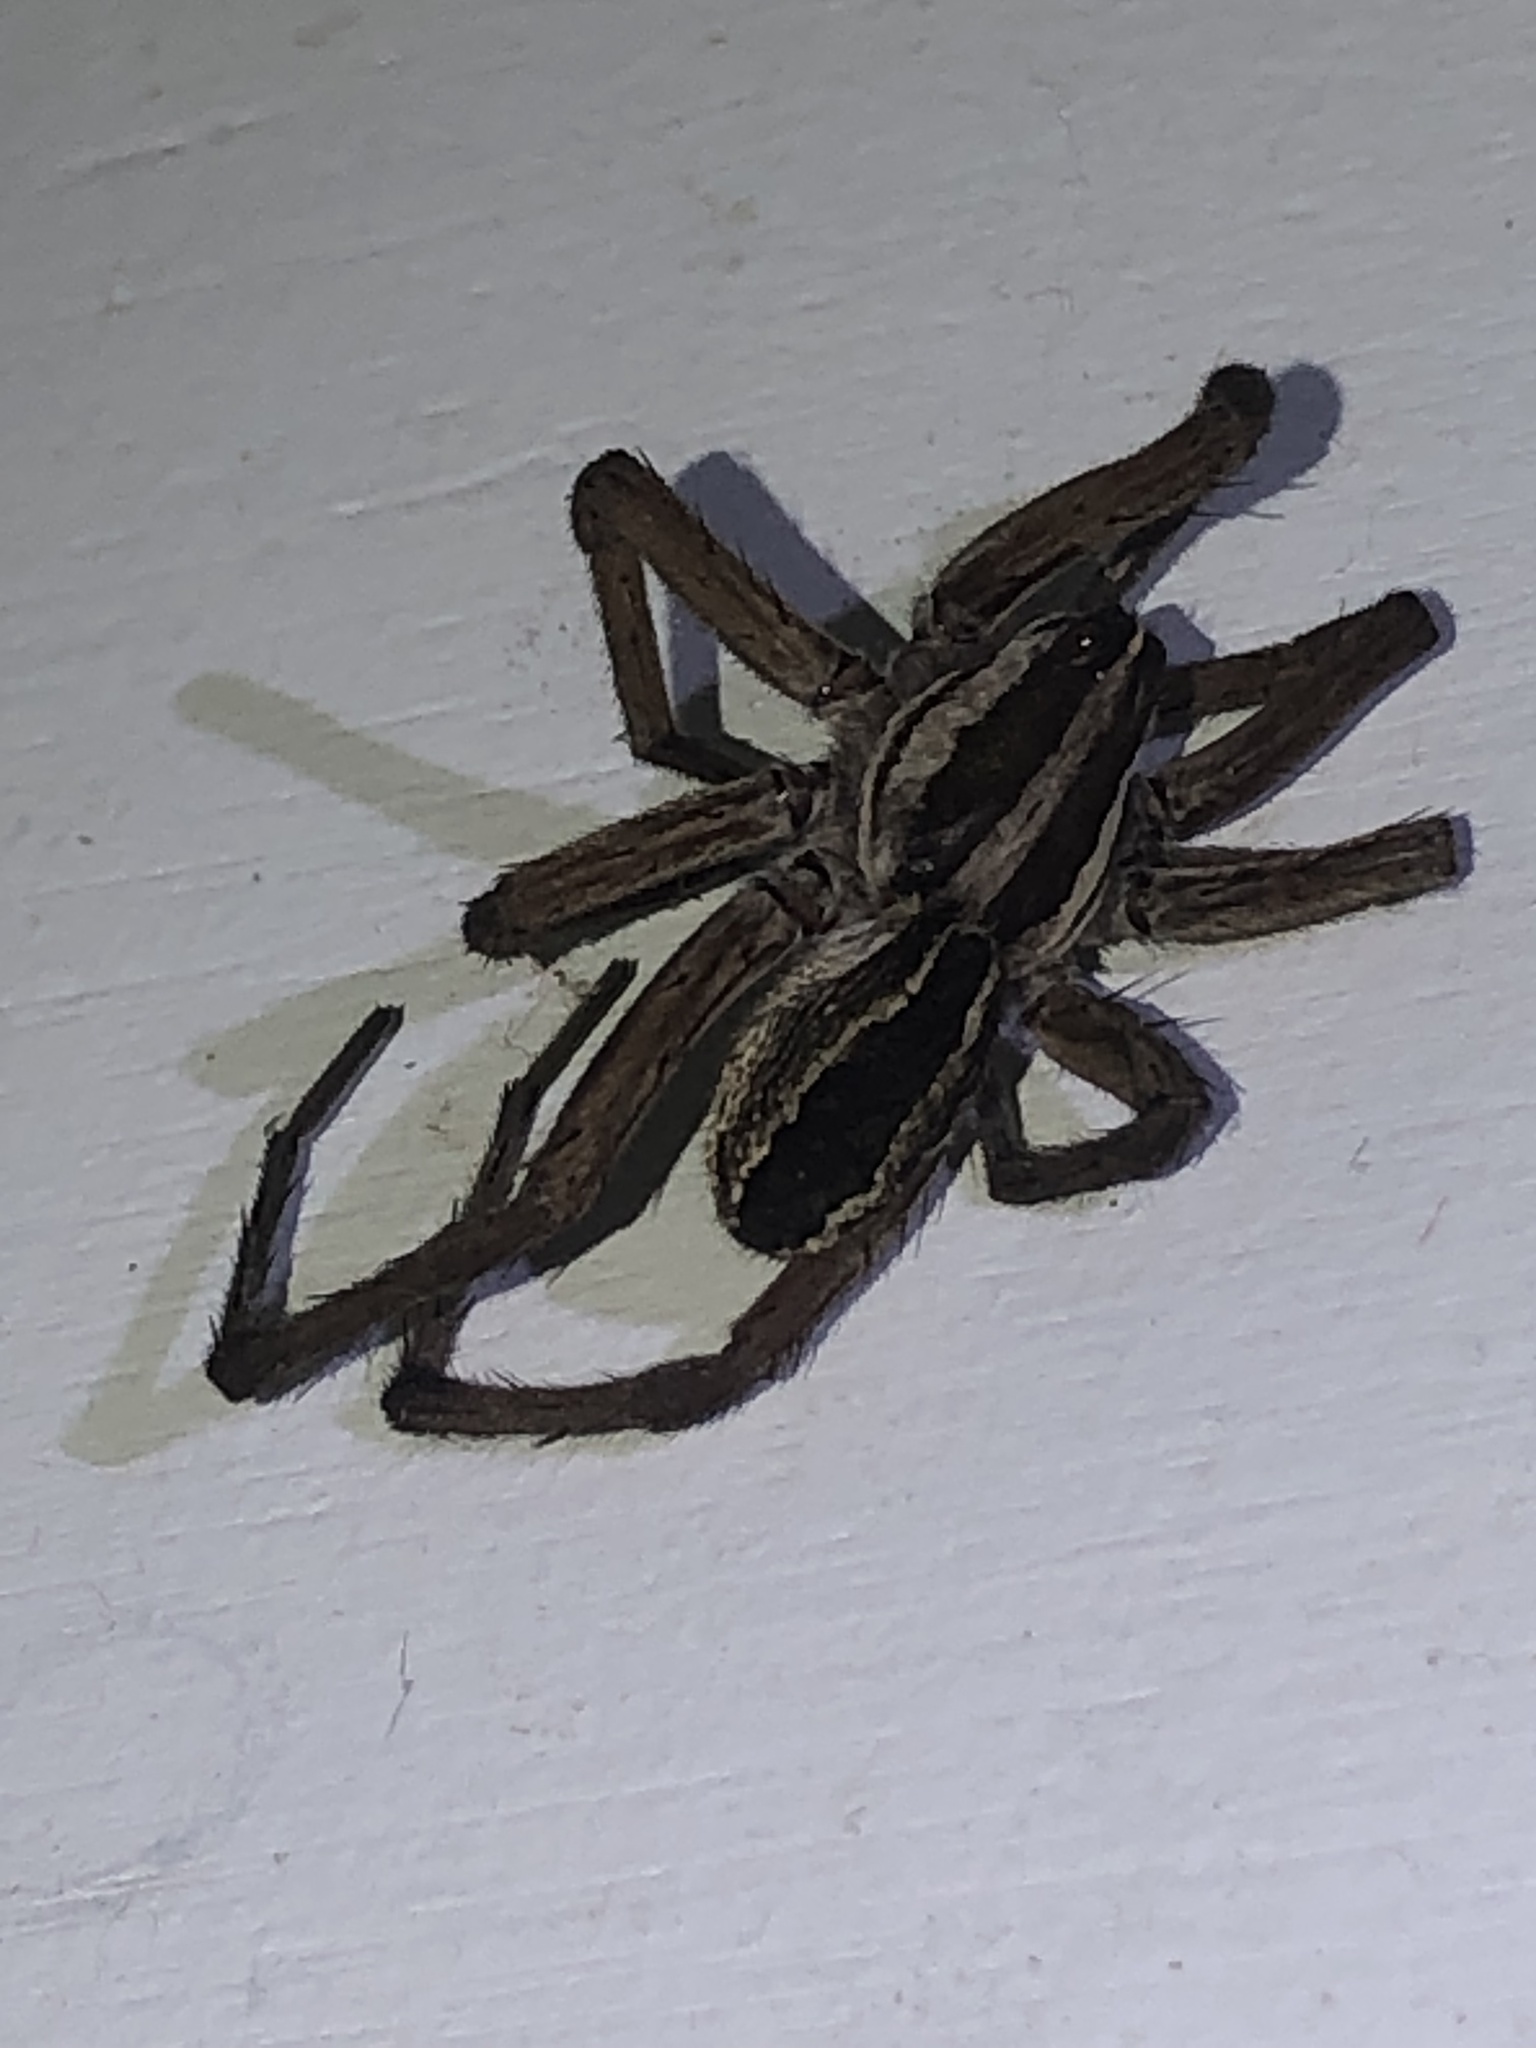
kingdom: Animalia
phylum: Arthropoda
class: Arachnida
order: Araneae
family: Lycosidae
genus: Rabidosa
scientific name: Rabidosa rabida
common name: Rabid wolf spider
